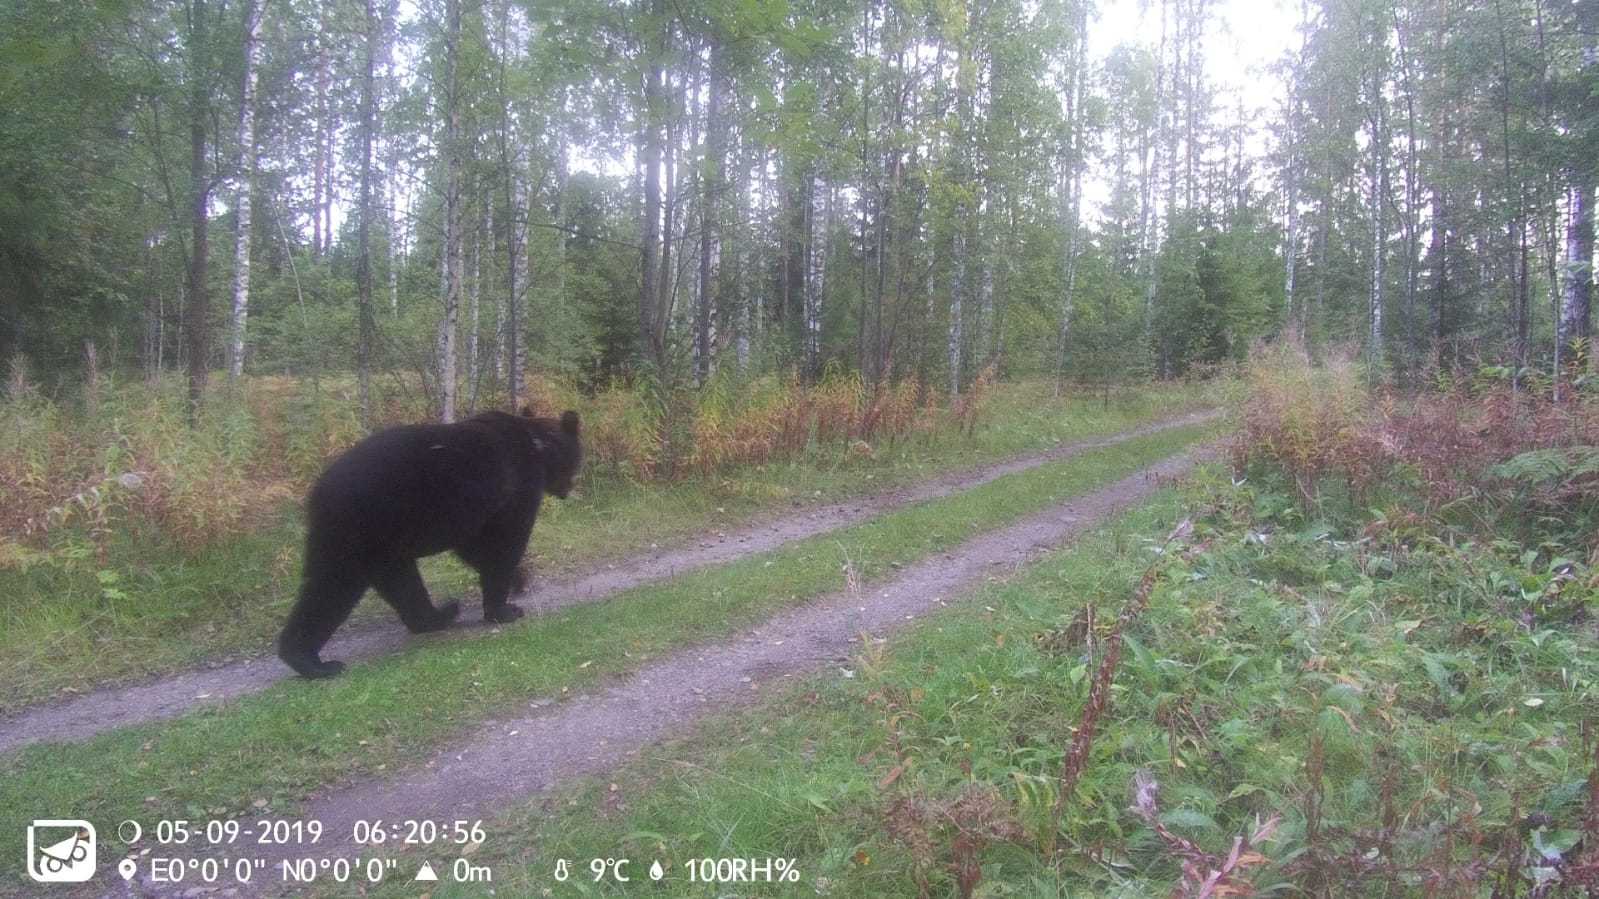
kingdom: Animalia
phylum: Chordata
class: Mammalia
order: Carnivora
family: Ursidae
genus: Ursus
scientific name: Ursus arctos
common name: Brown bear
